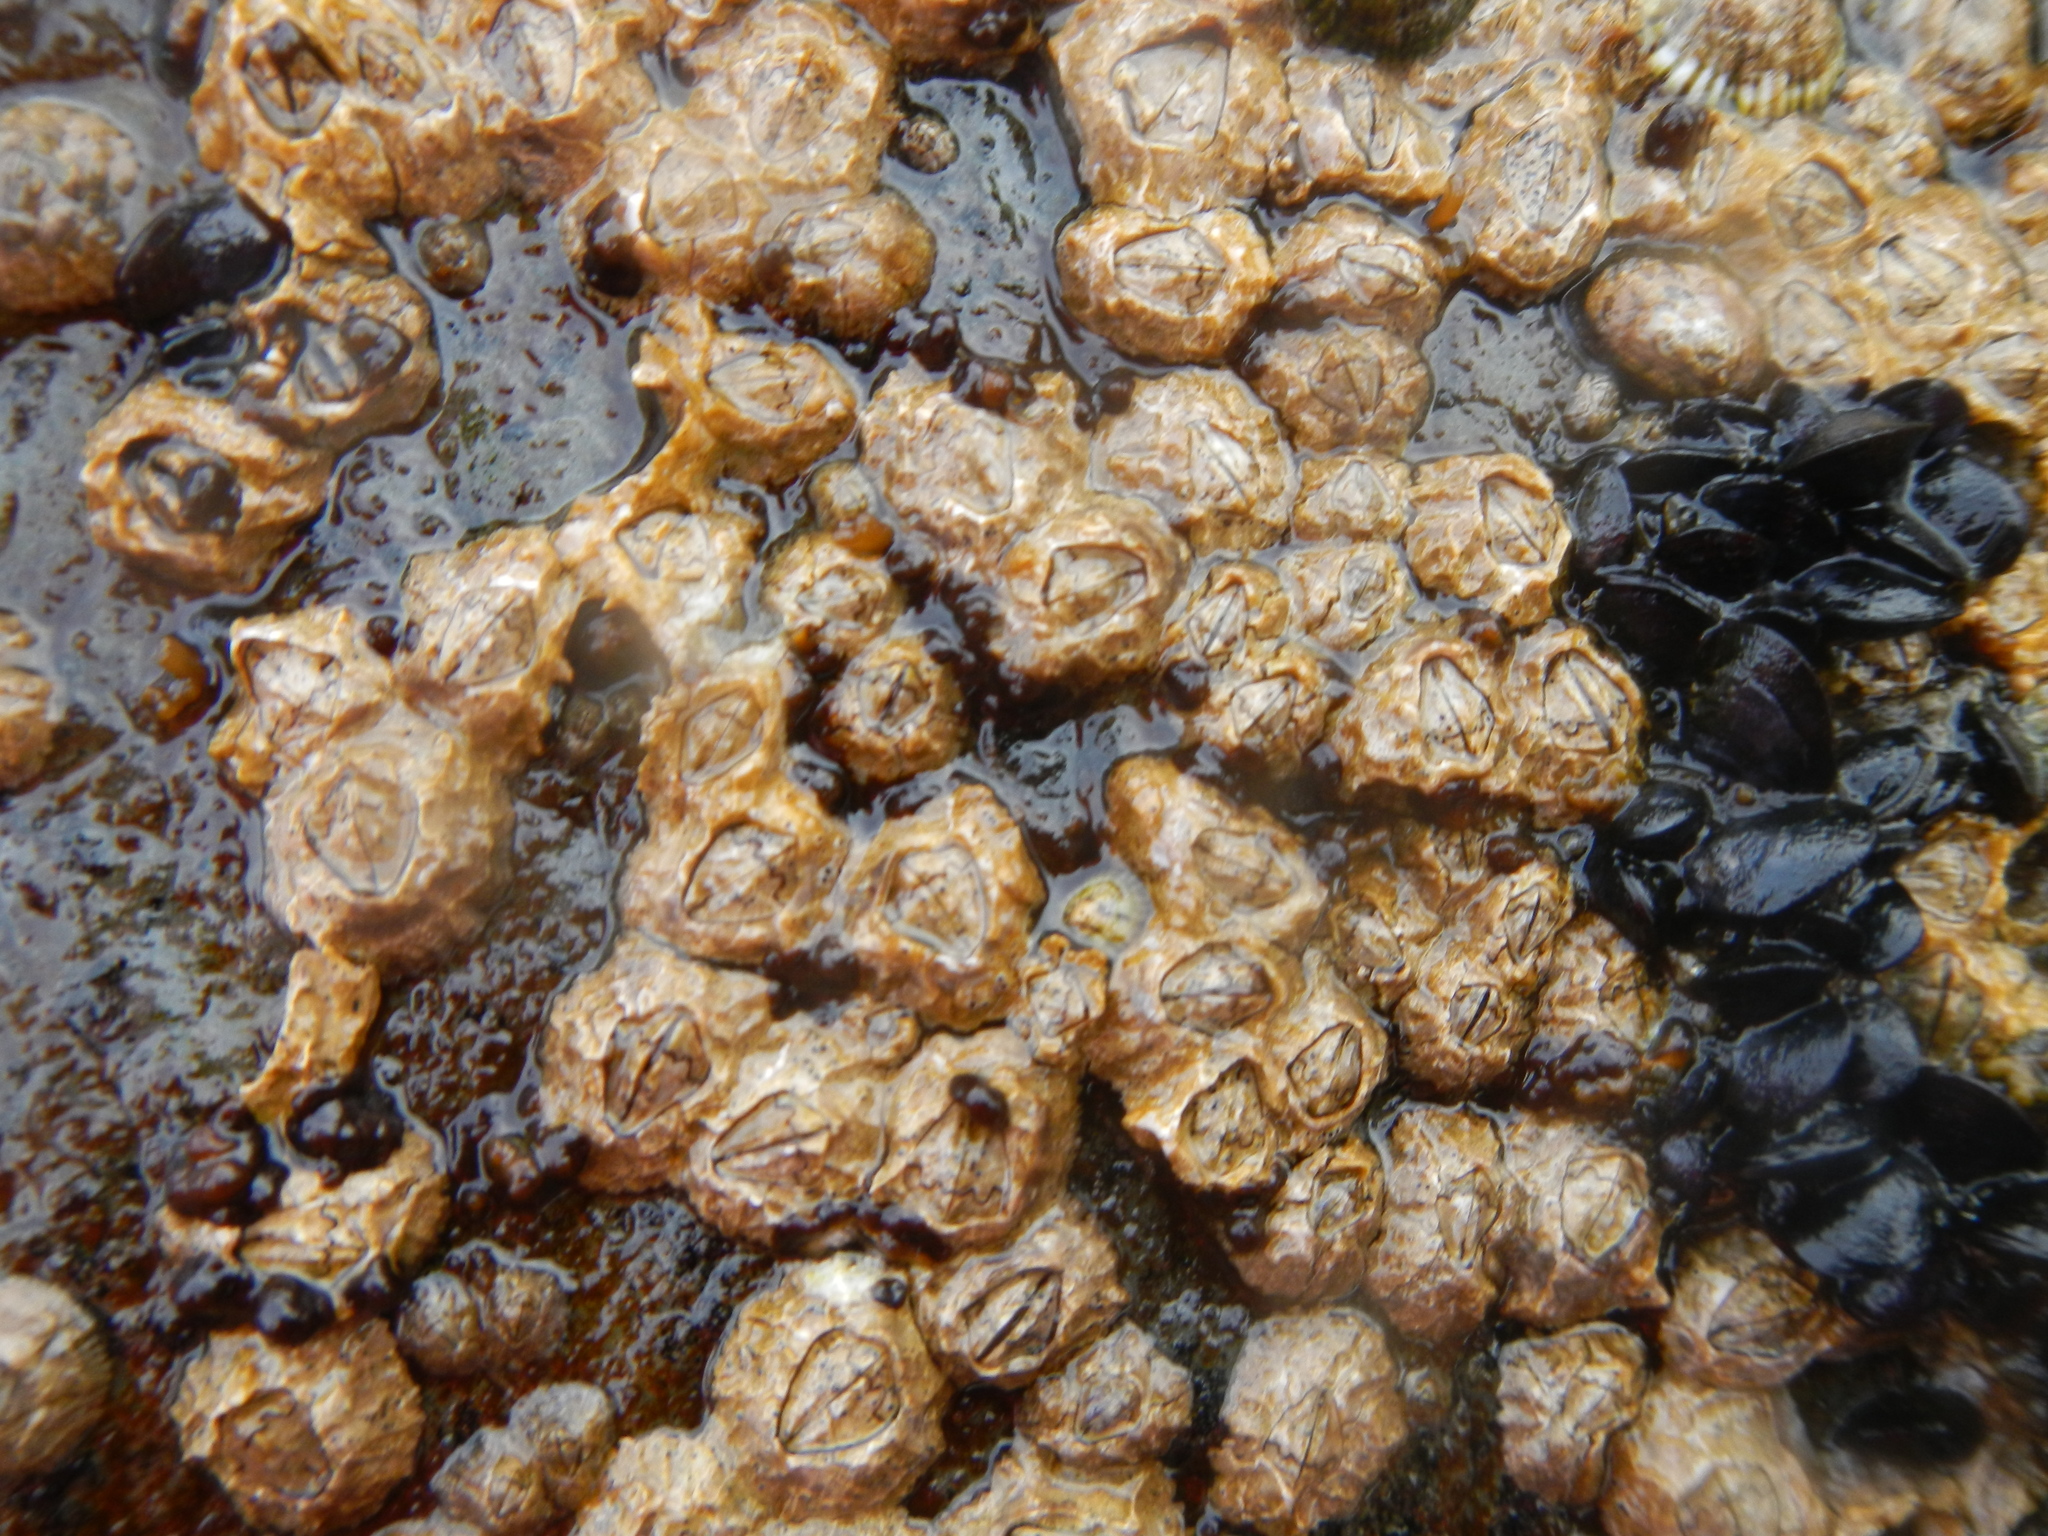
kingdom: Animalia
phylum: Arthropoda
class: Maxillopoda
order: Sessilia
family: Chthamalidae
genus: Notochthamalus
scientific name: Notochthamalus scabrosus
